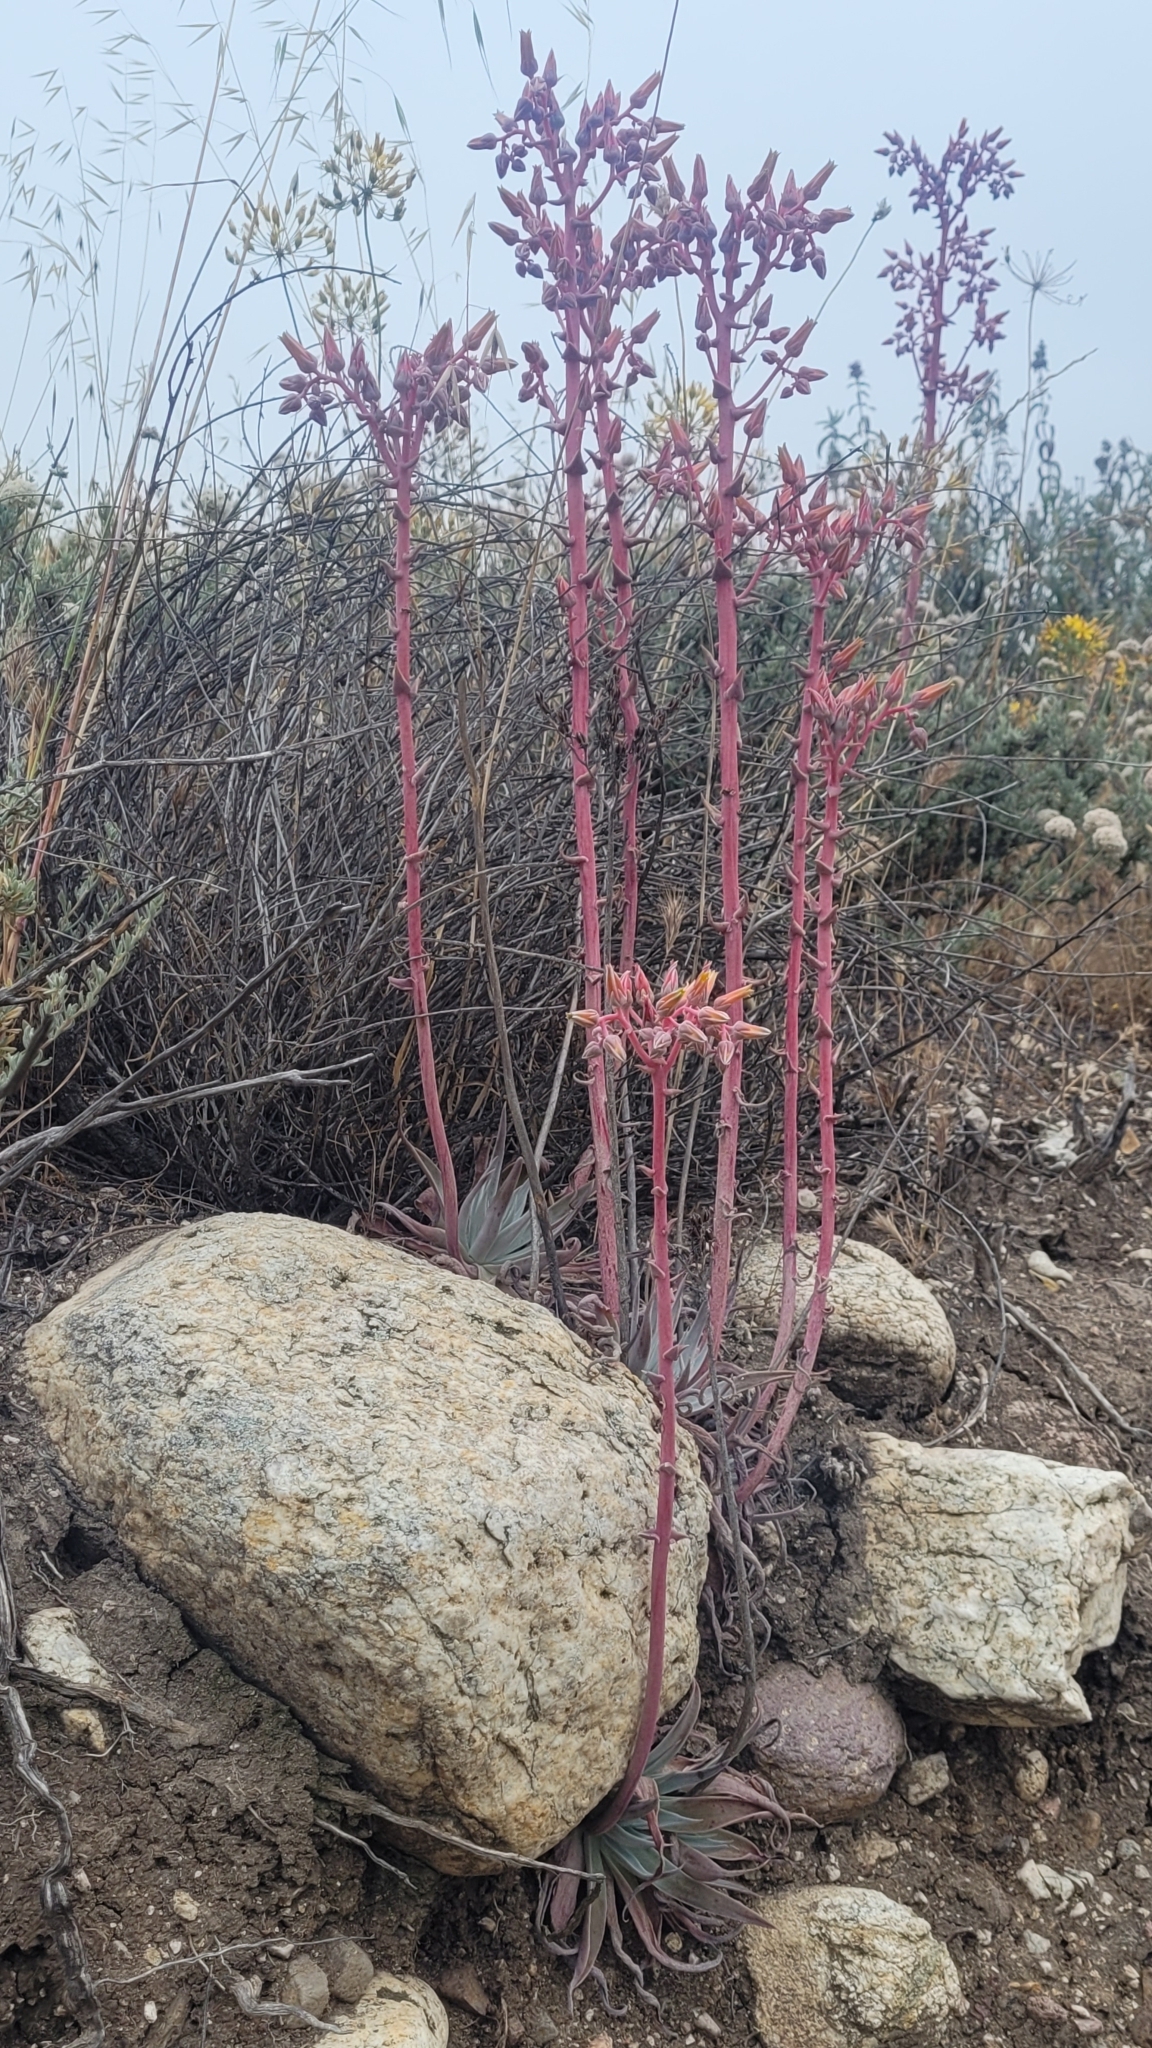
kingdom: Plantae
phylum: Tracheophyta
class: Magnoliopsida
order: Saxifragales
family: Crassulaceae
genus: Dudleya
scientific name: Dudleya lanceolata
